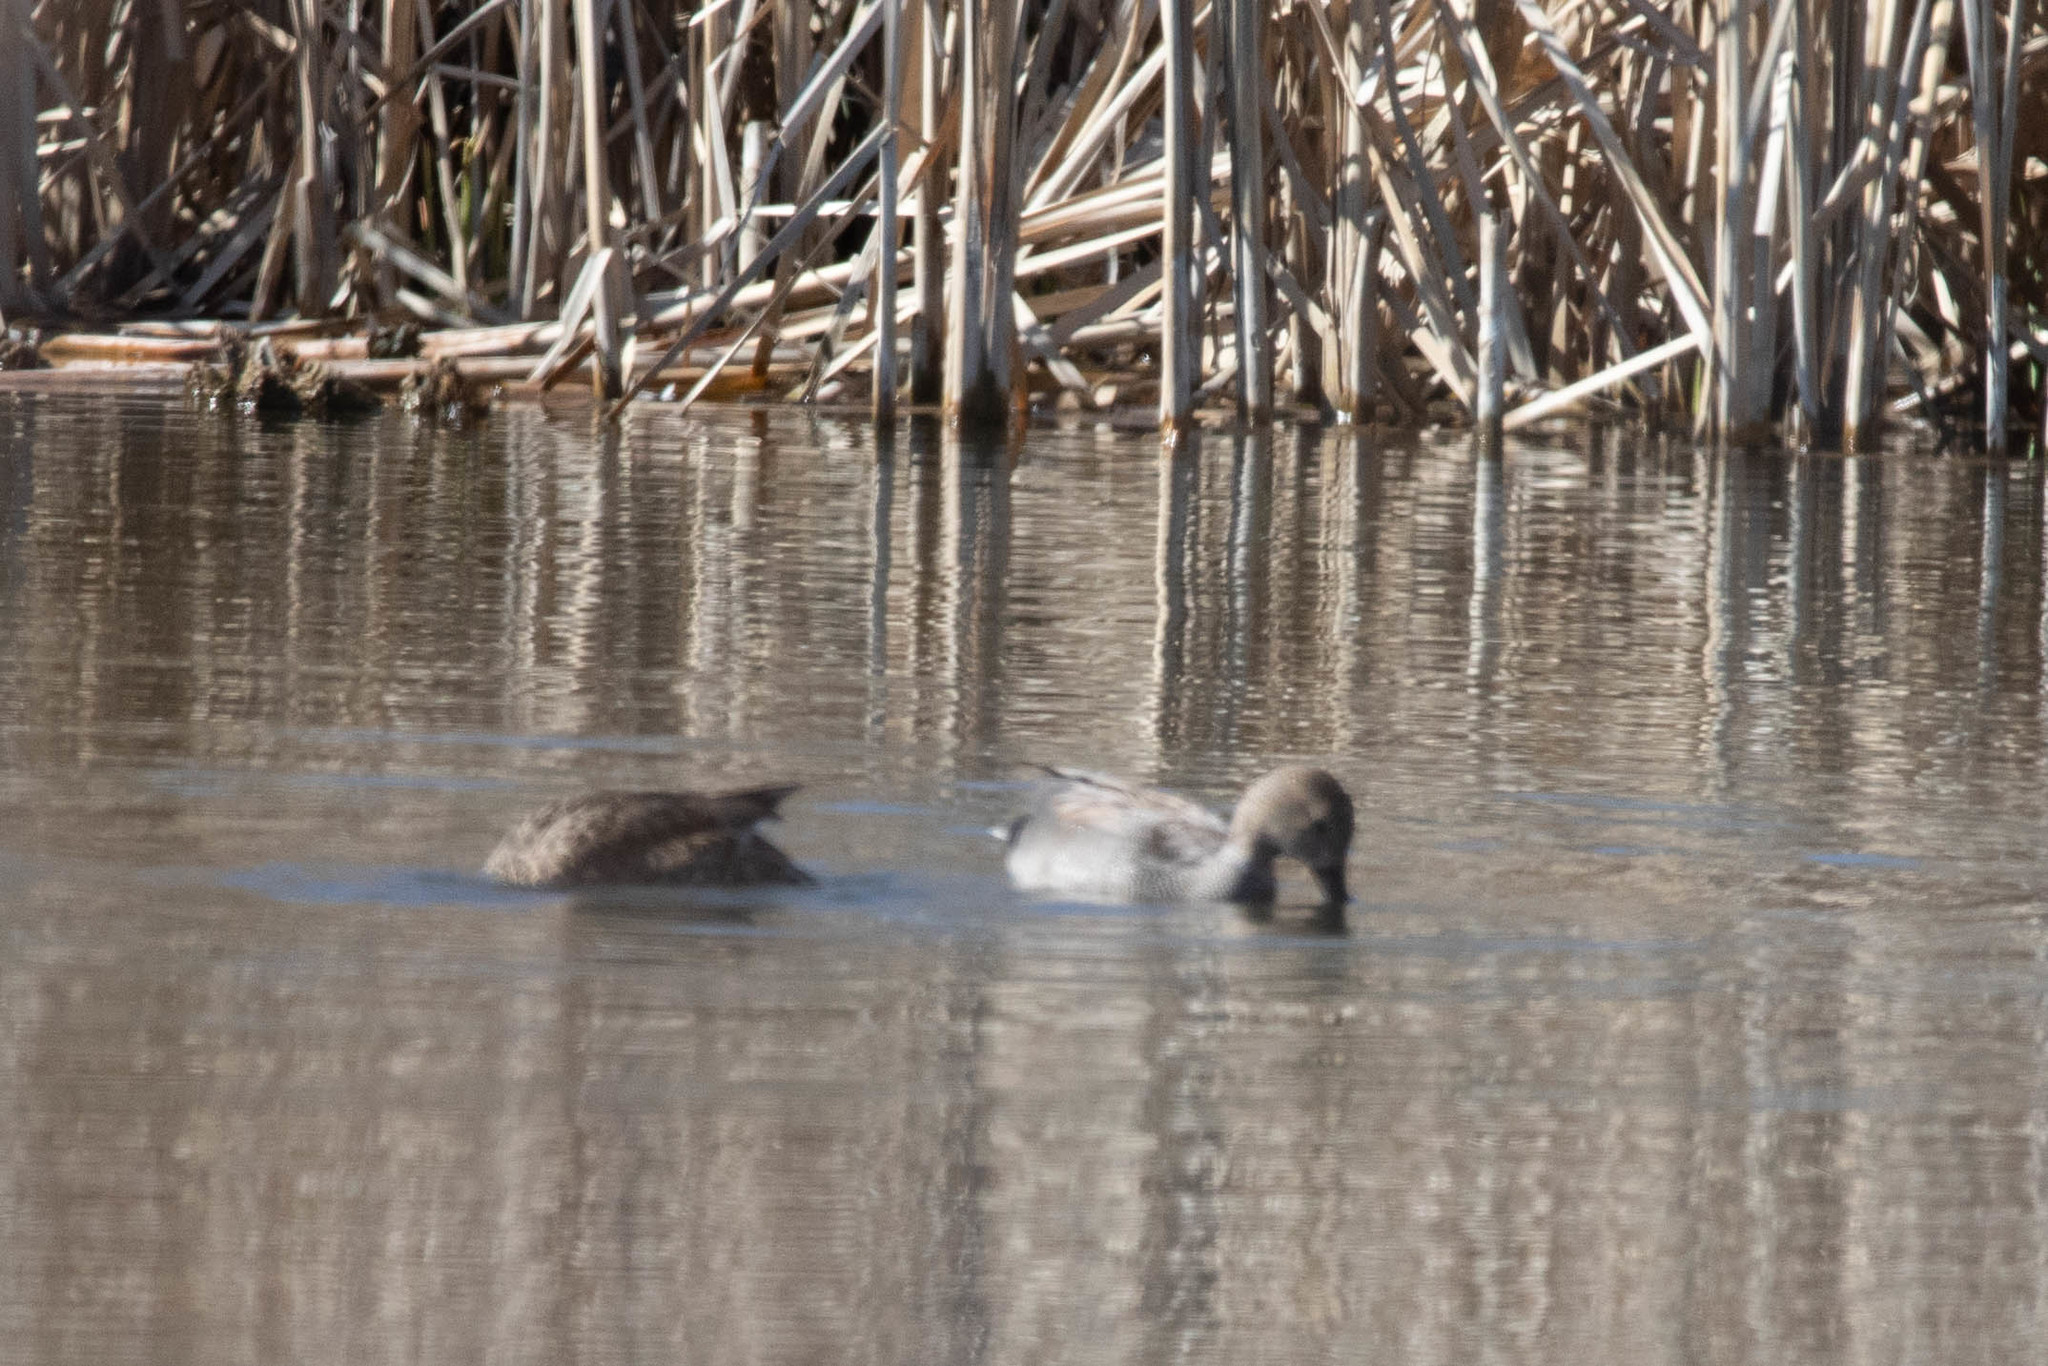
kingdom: Animalia
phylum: Chordata
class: Aves
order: Anseriformes
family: Anatidae
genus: Mareca
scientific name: Mareca strepera
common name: Gadwall
